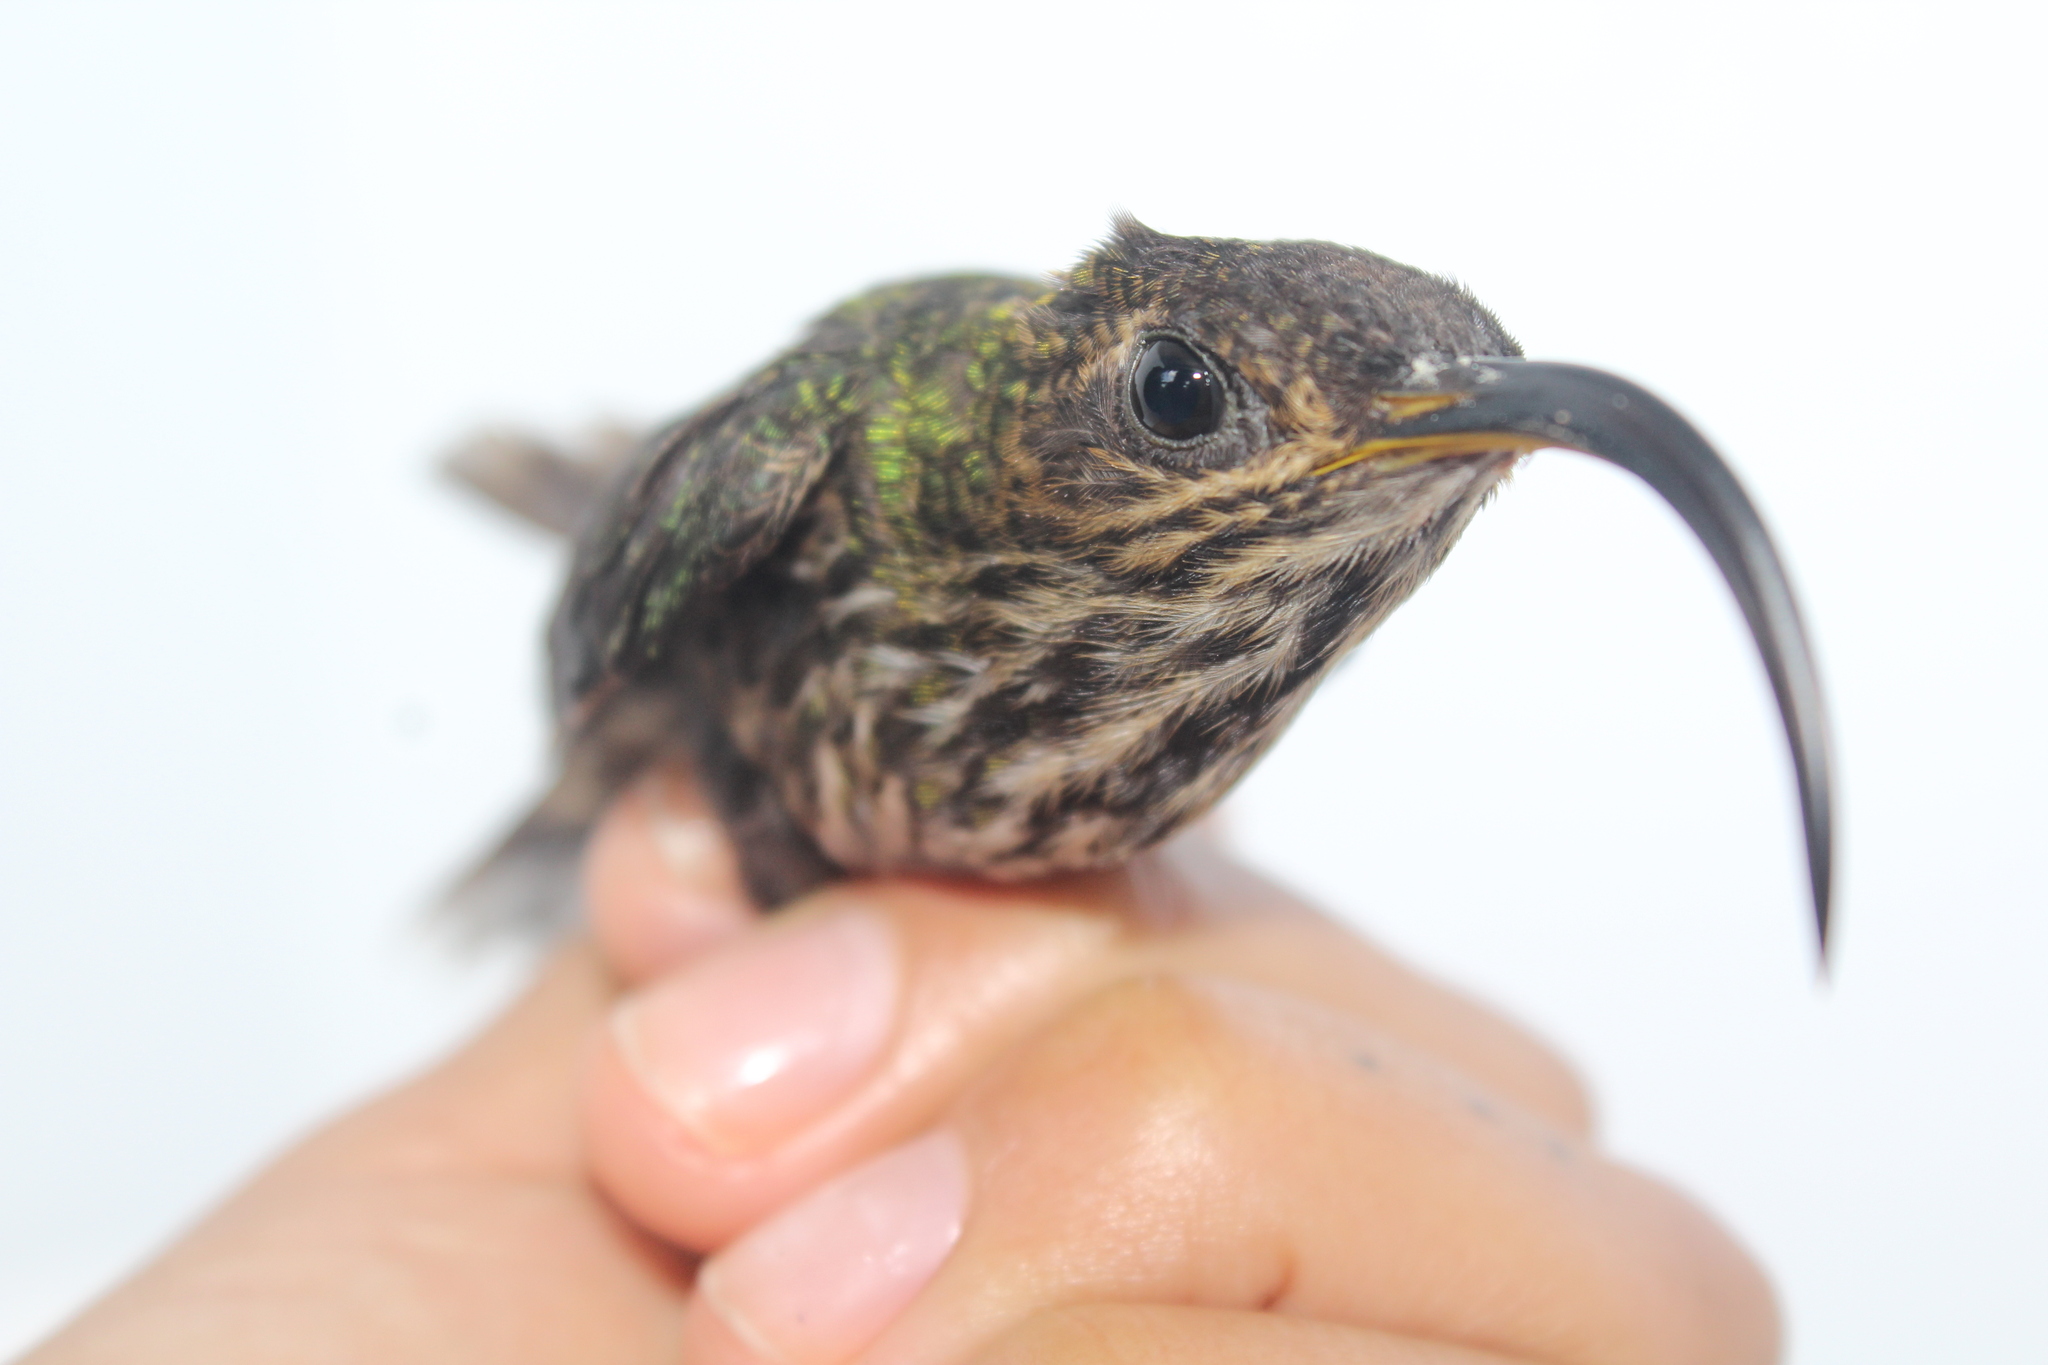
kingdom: Animalia
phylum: Chordata
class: Aves
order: Apodiformes
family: Trochilidae
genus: Eutoxeres
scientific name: Eutoxeres aquila
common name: White-tipped sicklebill
